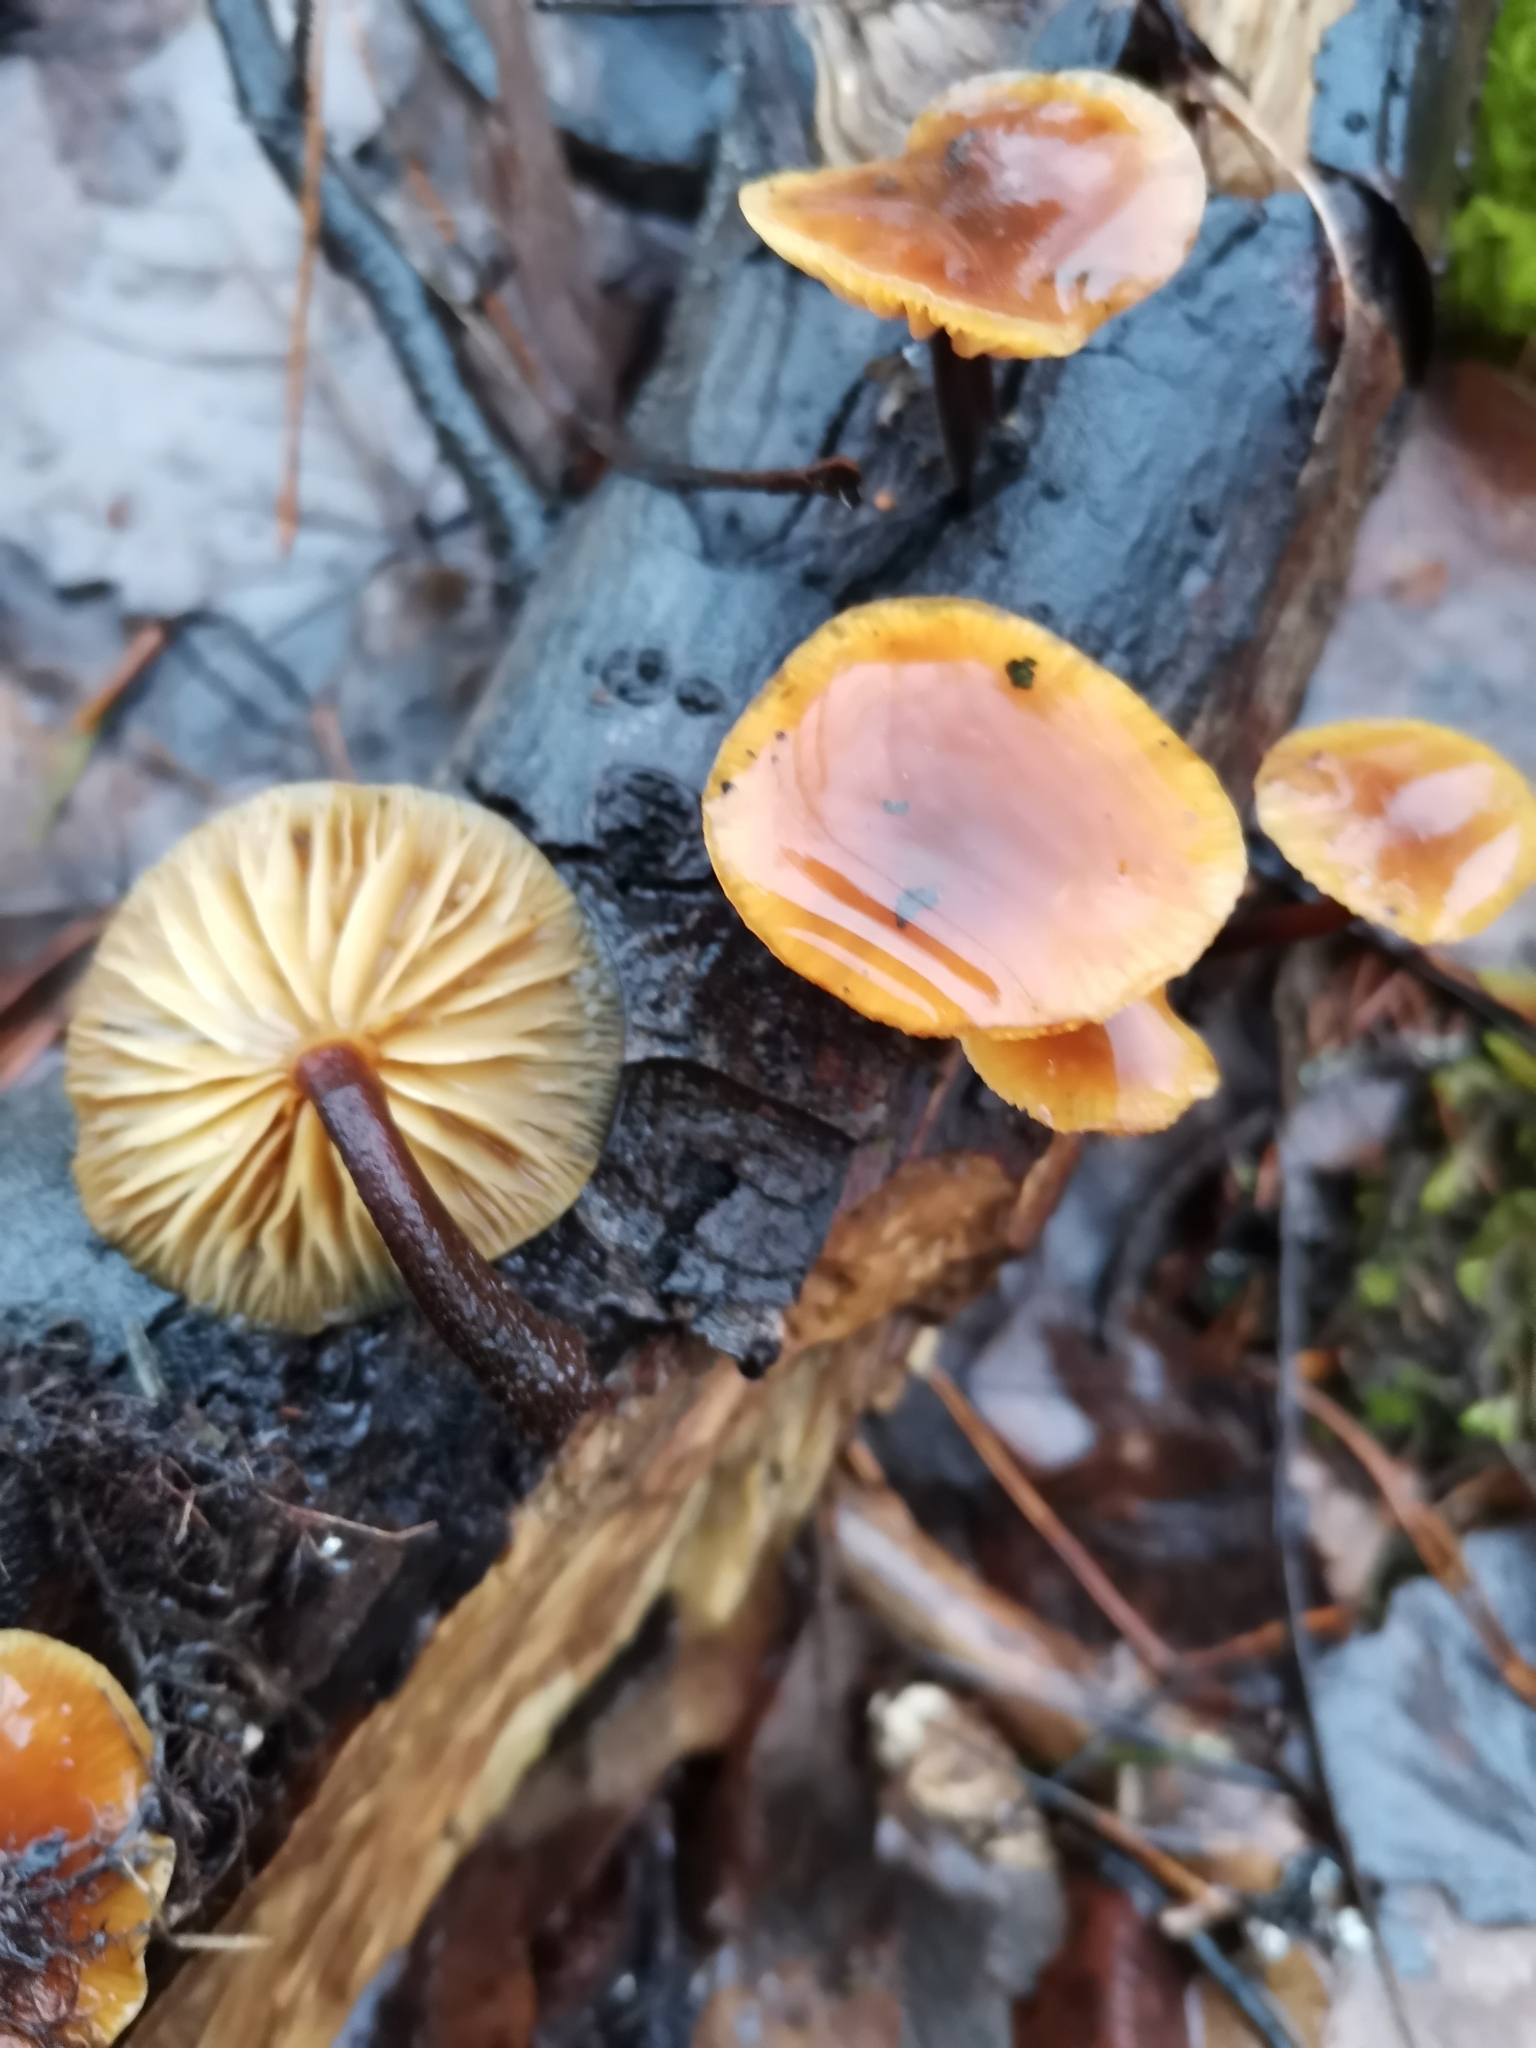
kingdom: Fungi
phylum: Basidiomycota
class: Agaricomycetes
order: Agaricales
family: Physalacriaceae
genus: Flammulina
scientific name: Flammulina
